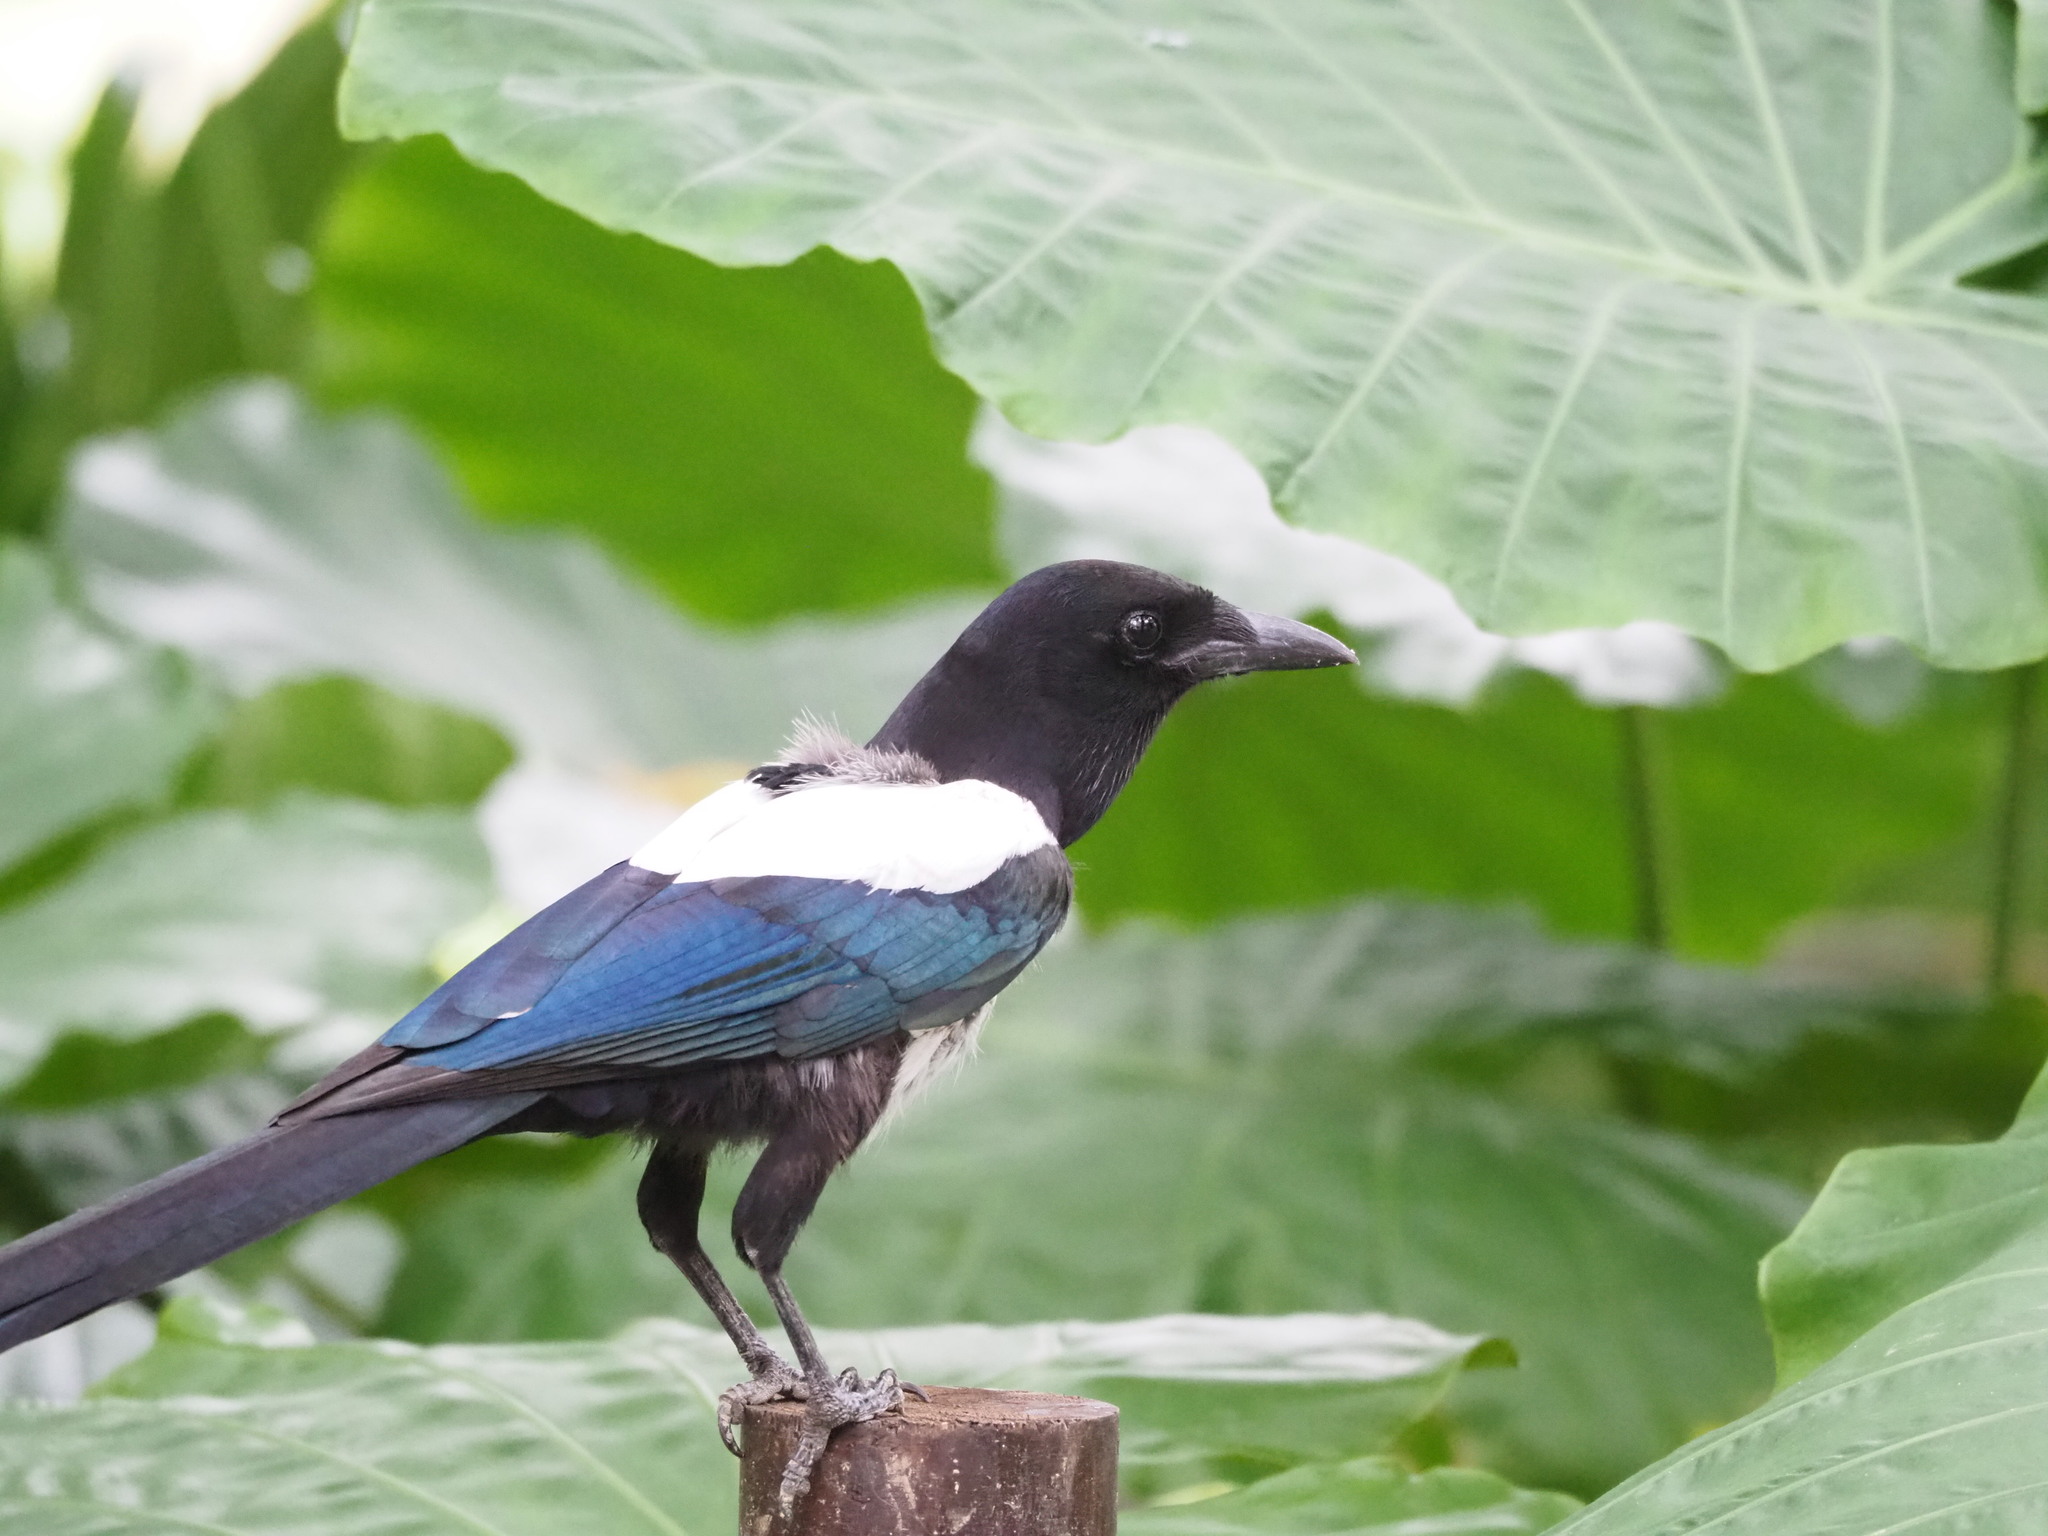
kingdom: Animalia
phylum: Chordata
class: Aves
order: Passeriformes
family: Corvidae
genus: Pica
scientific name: Pica serica
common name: Oriental magpie
